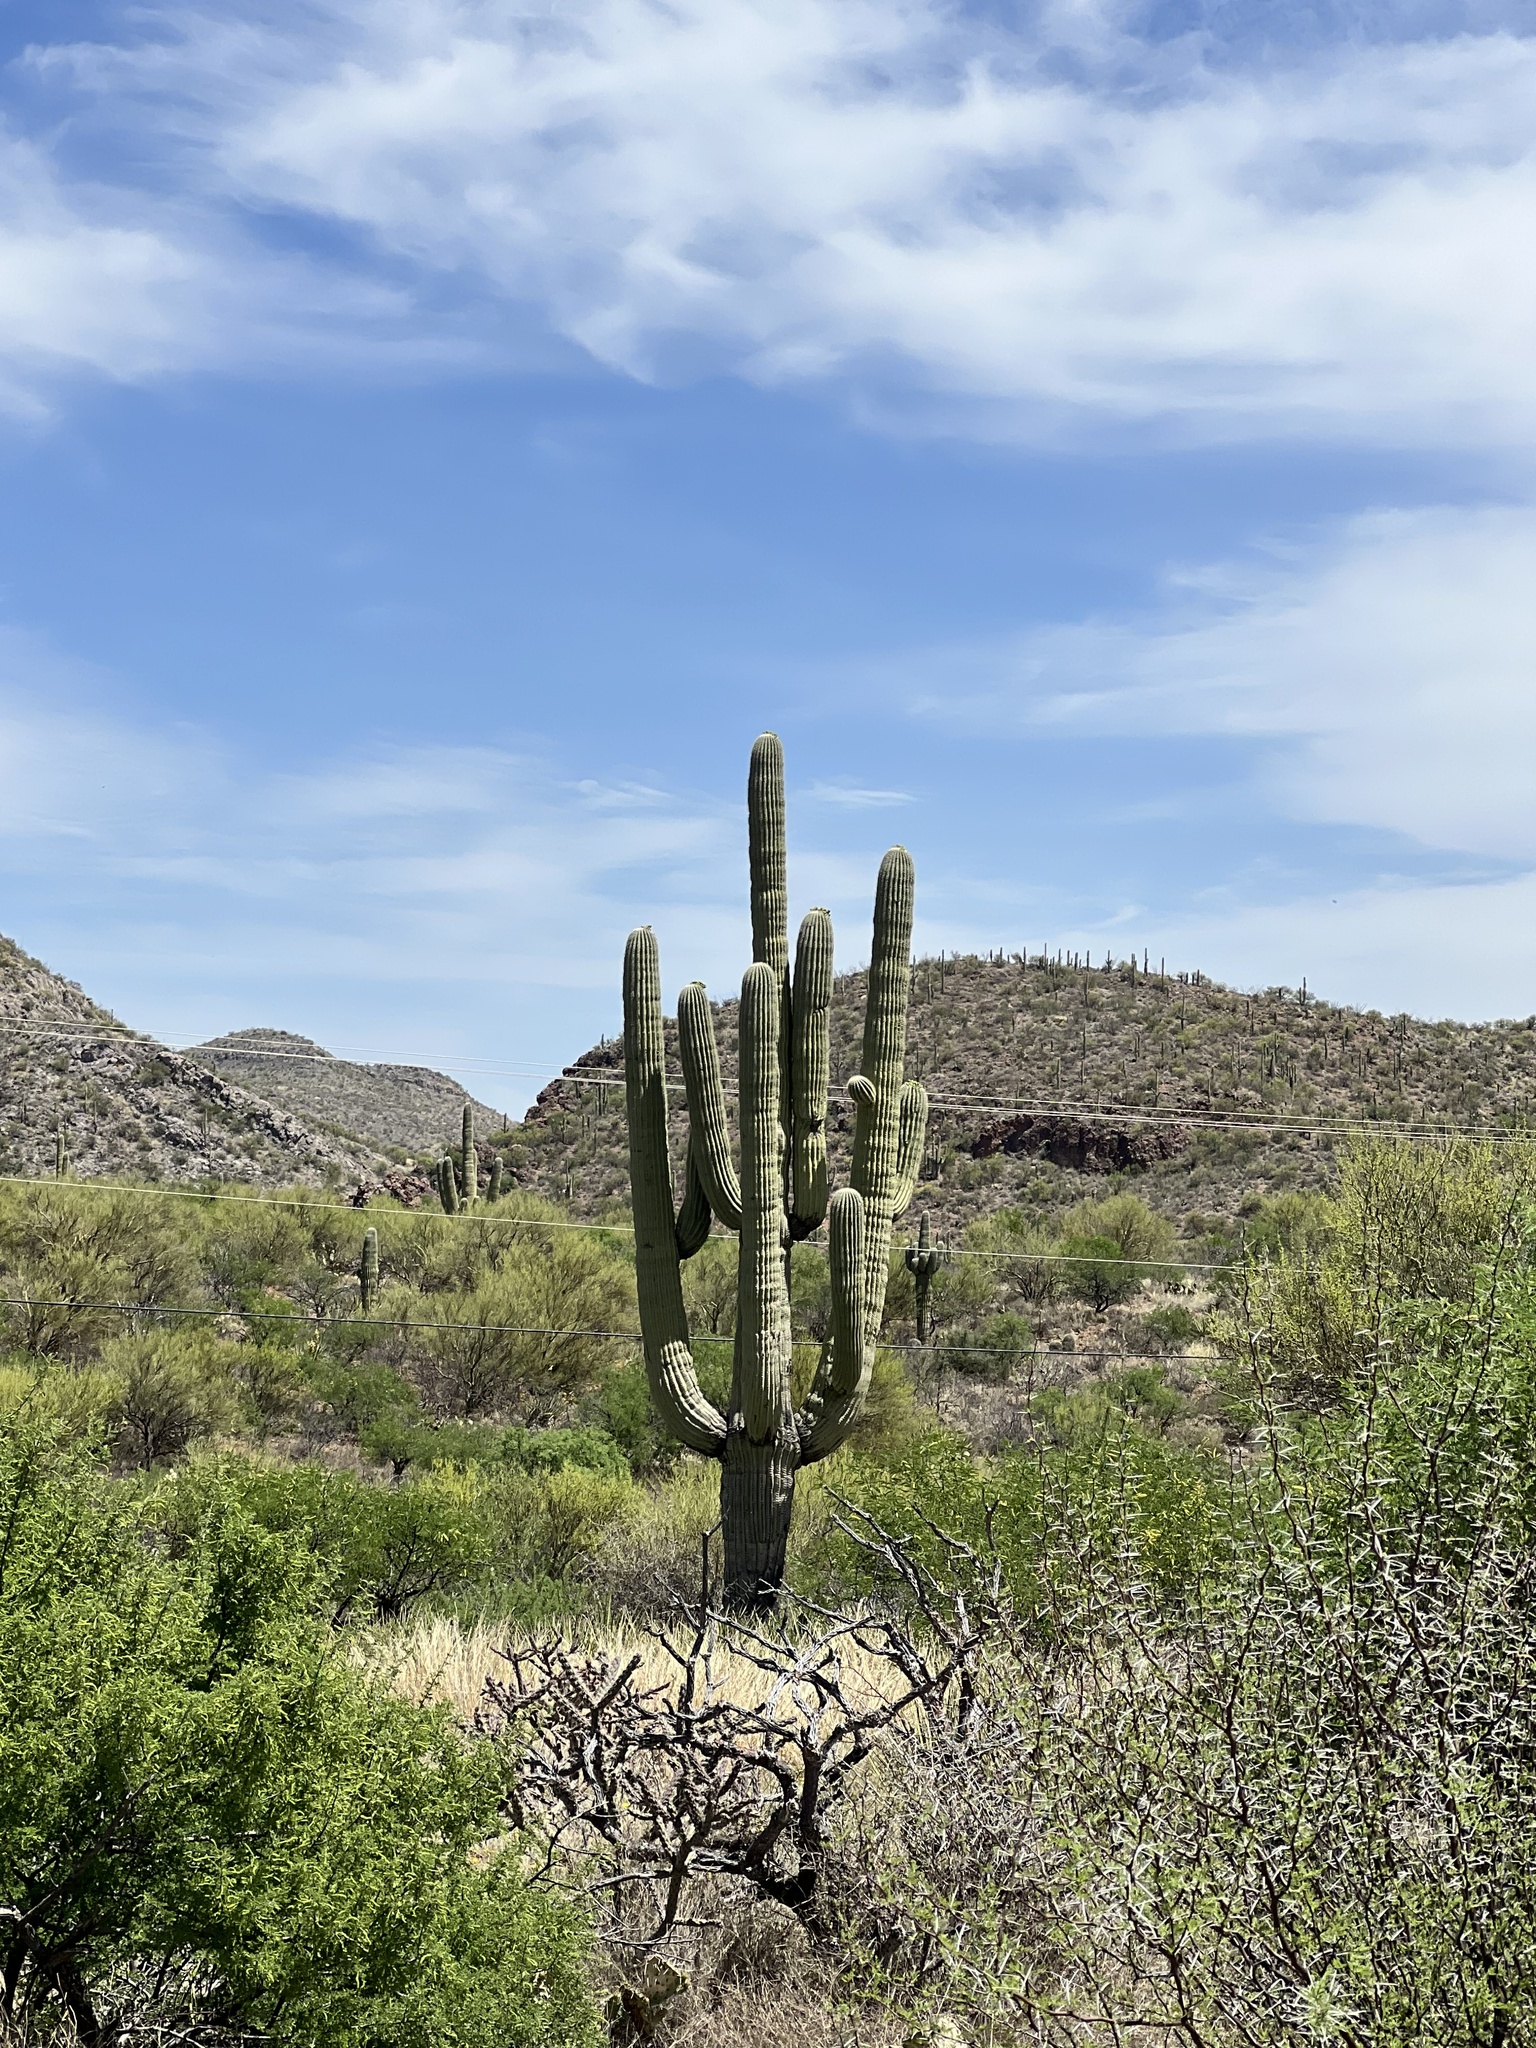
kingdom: Plantae
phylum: Tracheophyta
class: Magnoliopsida
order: Caryophyllales
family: Cactaceae
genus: Carnegiea
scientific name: Carnegiea gigantea
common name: Saguaro
